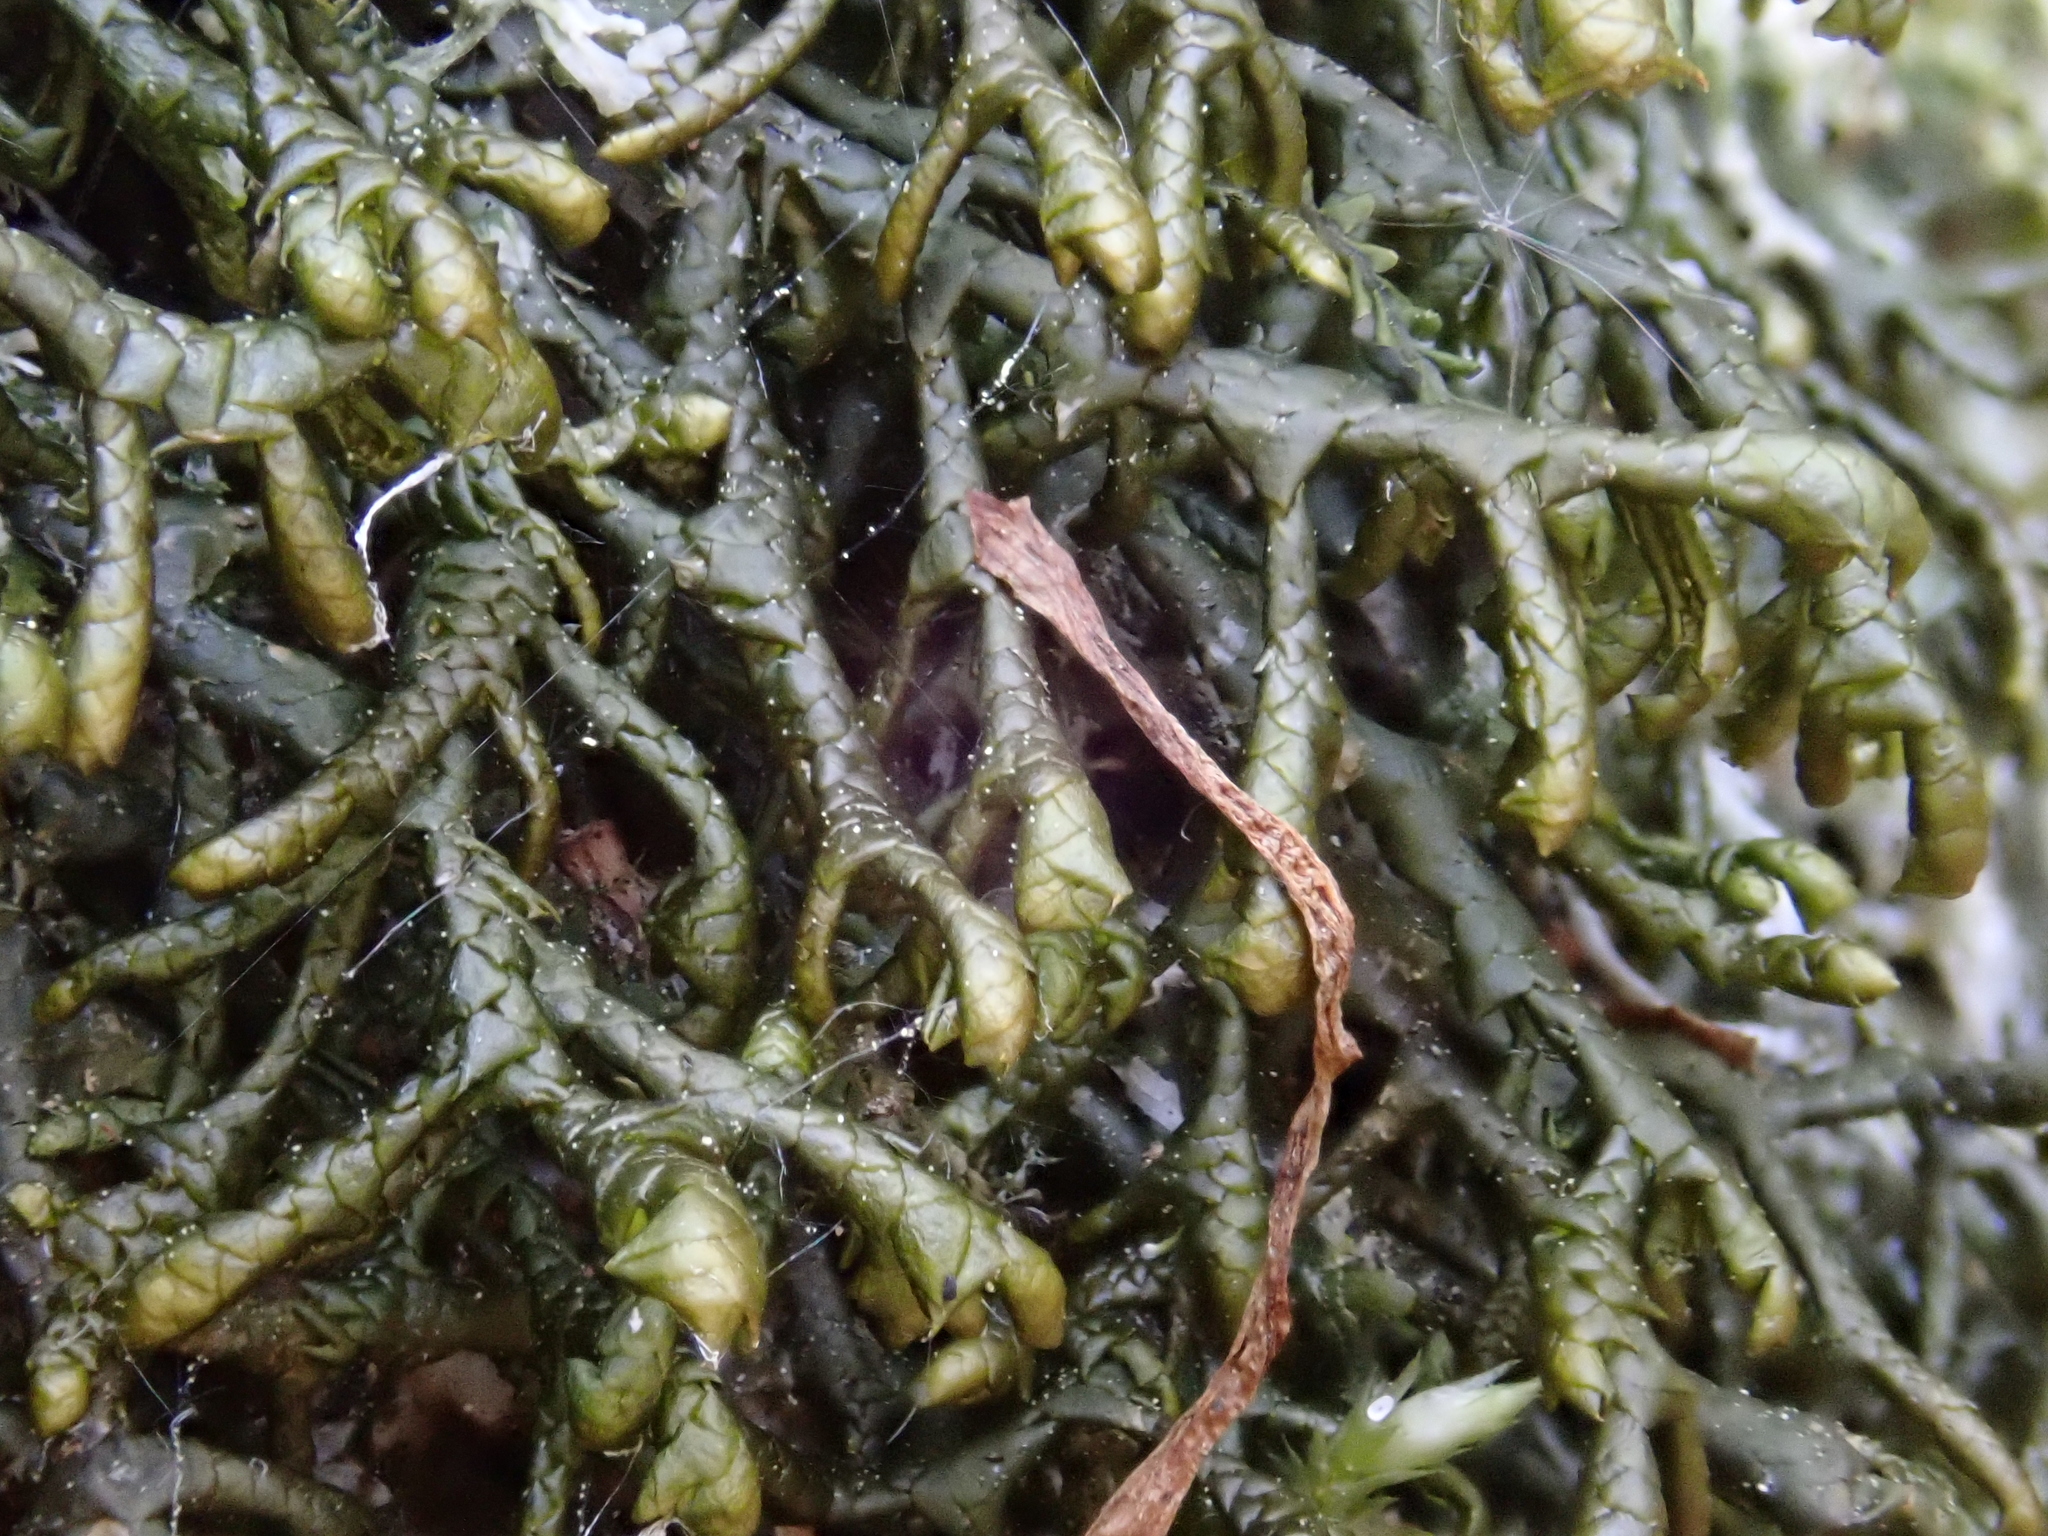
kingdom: Plantae
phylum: Marchantiophyta
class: Jungermanniopsida
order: Porellales
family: Porellaceae
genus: Porella
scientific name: Porella arboris-vitae
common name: Bitter scalewort
